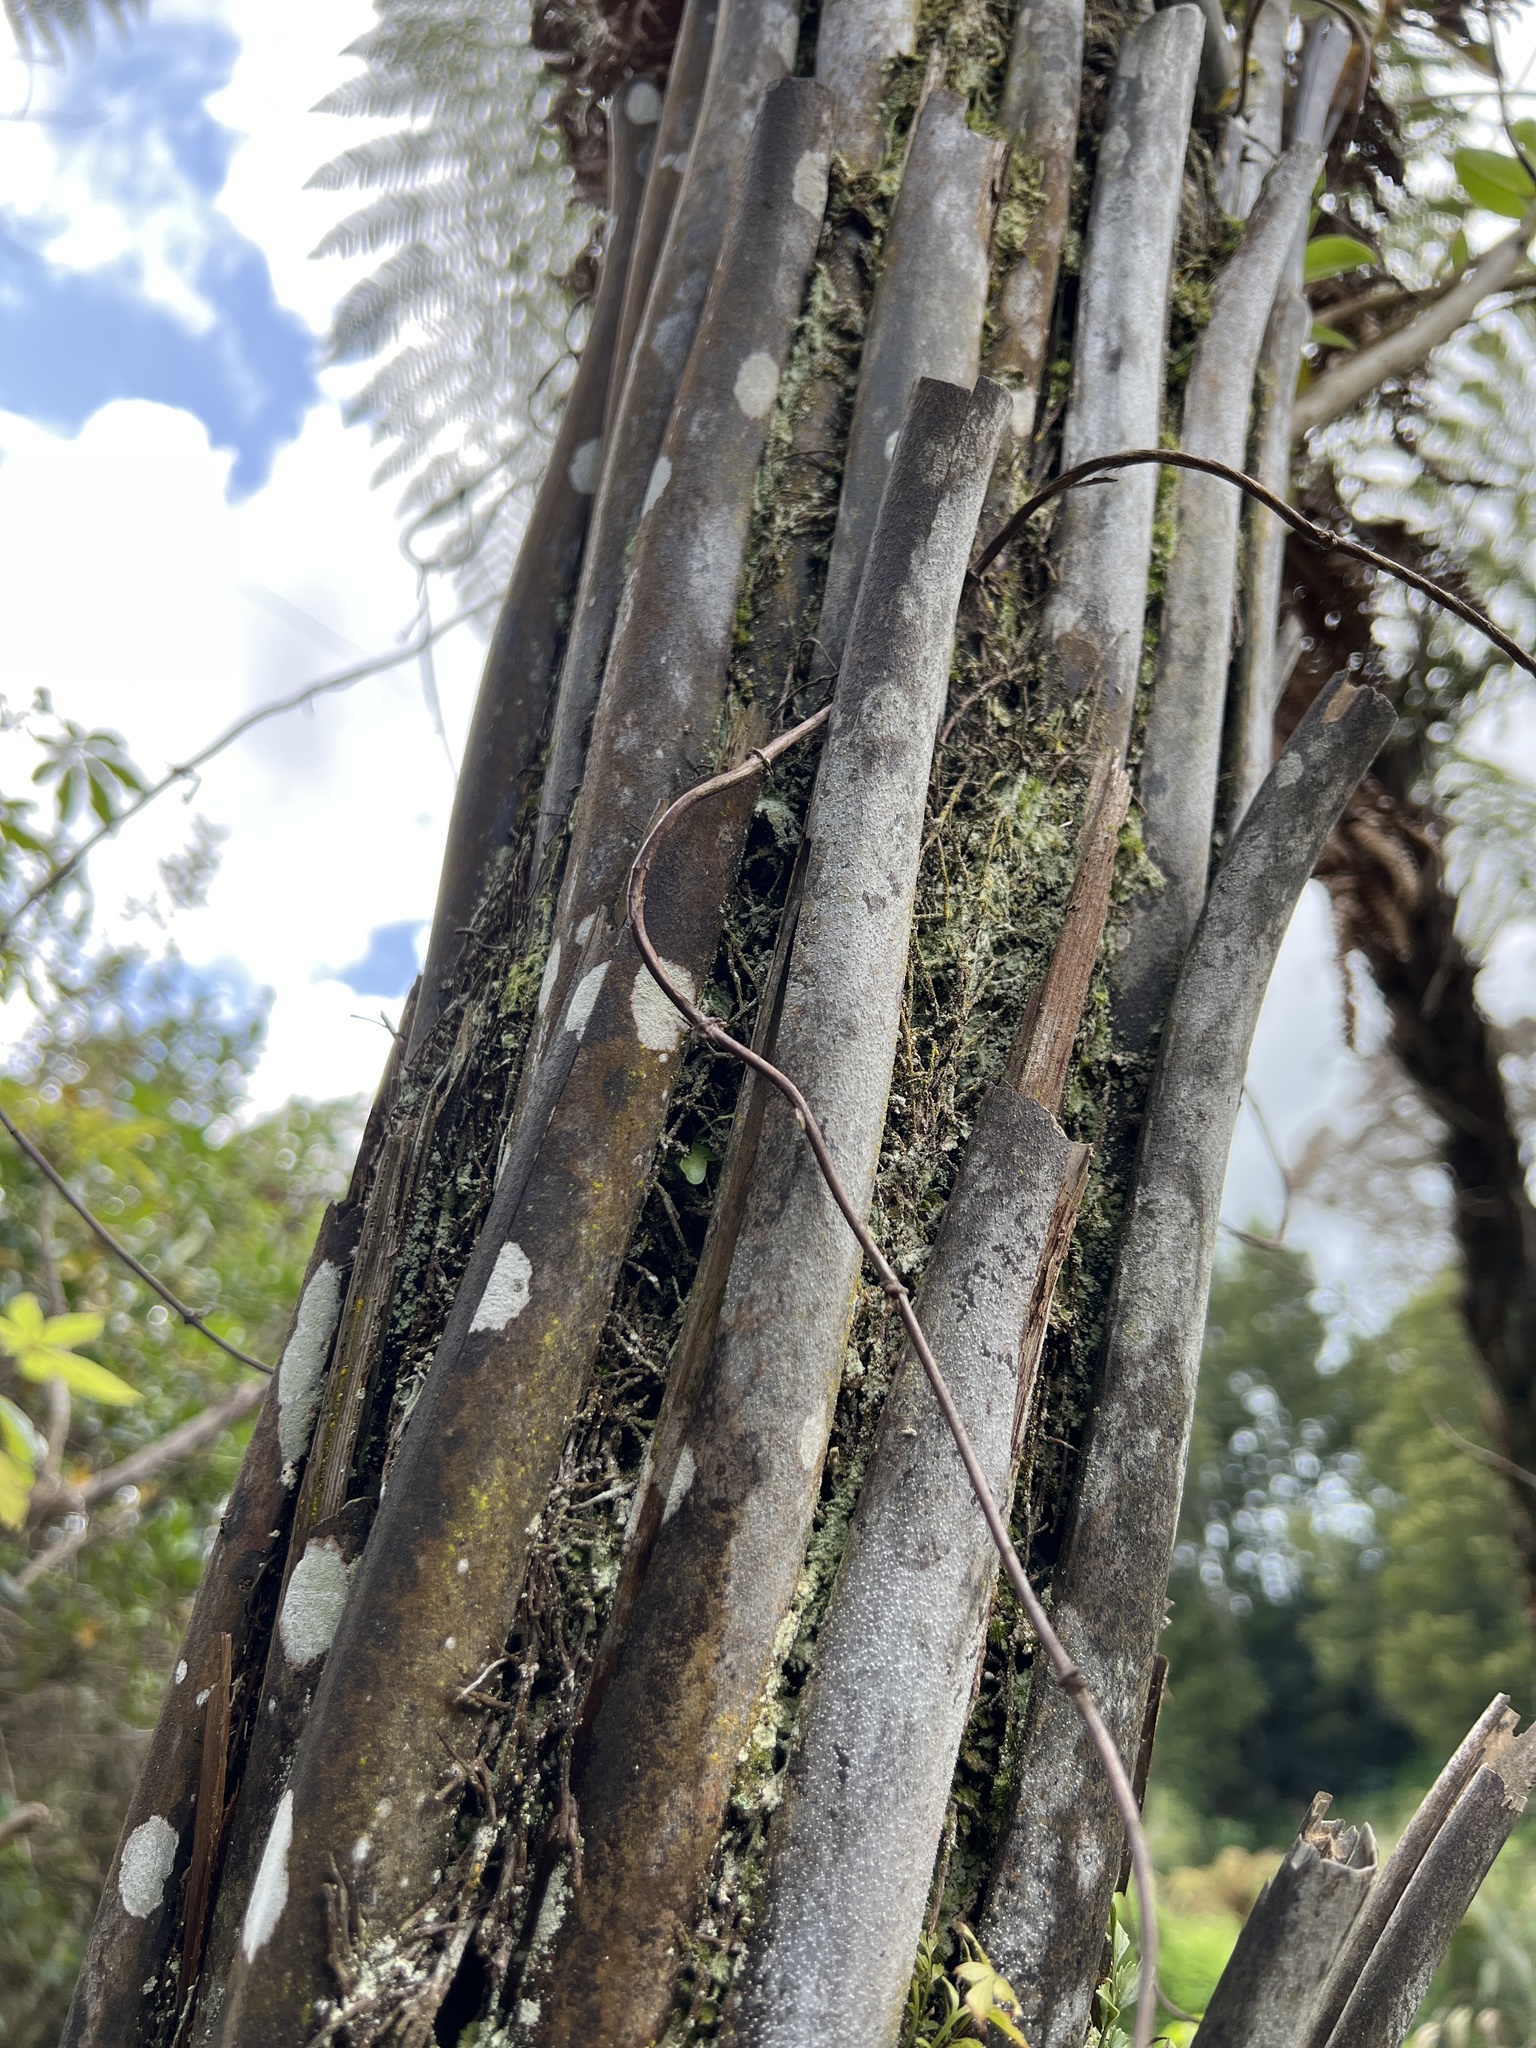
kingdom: Plantae
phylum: Tracheophyta
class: Polypodiopsida
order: Cyatheales
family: Dicksoniaceae
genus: Dicksonia
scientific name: Dicksonia squarrosa
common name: Hard treefern
